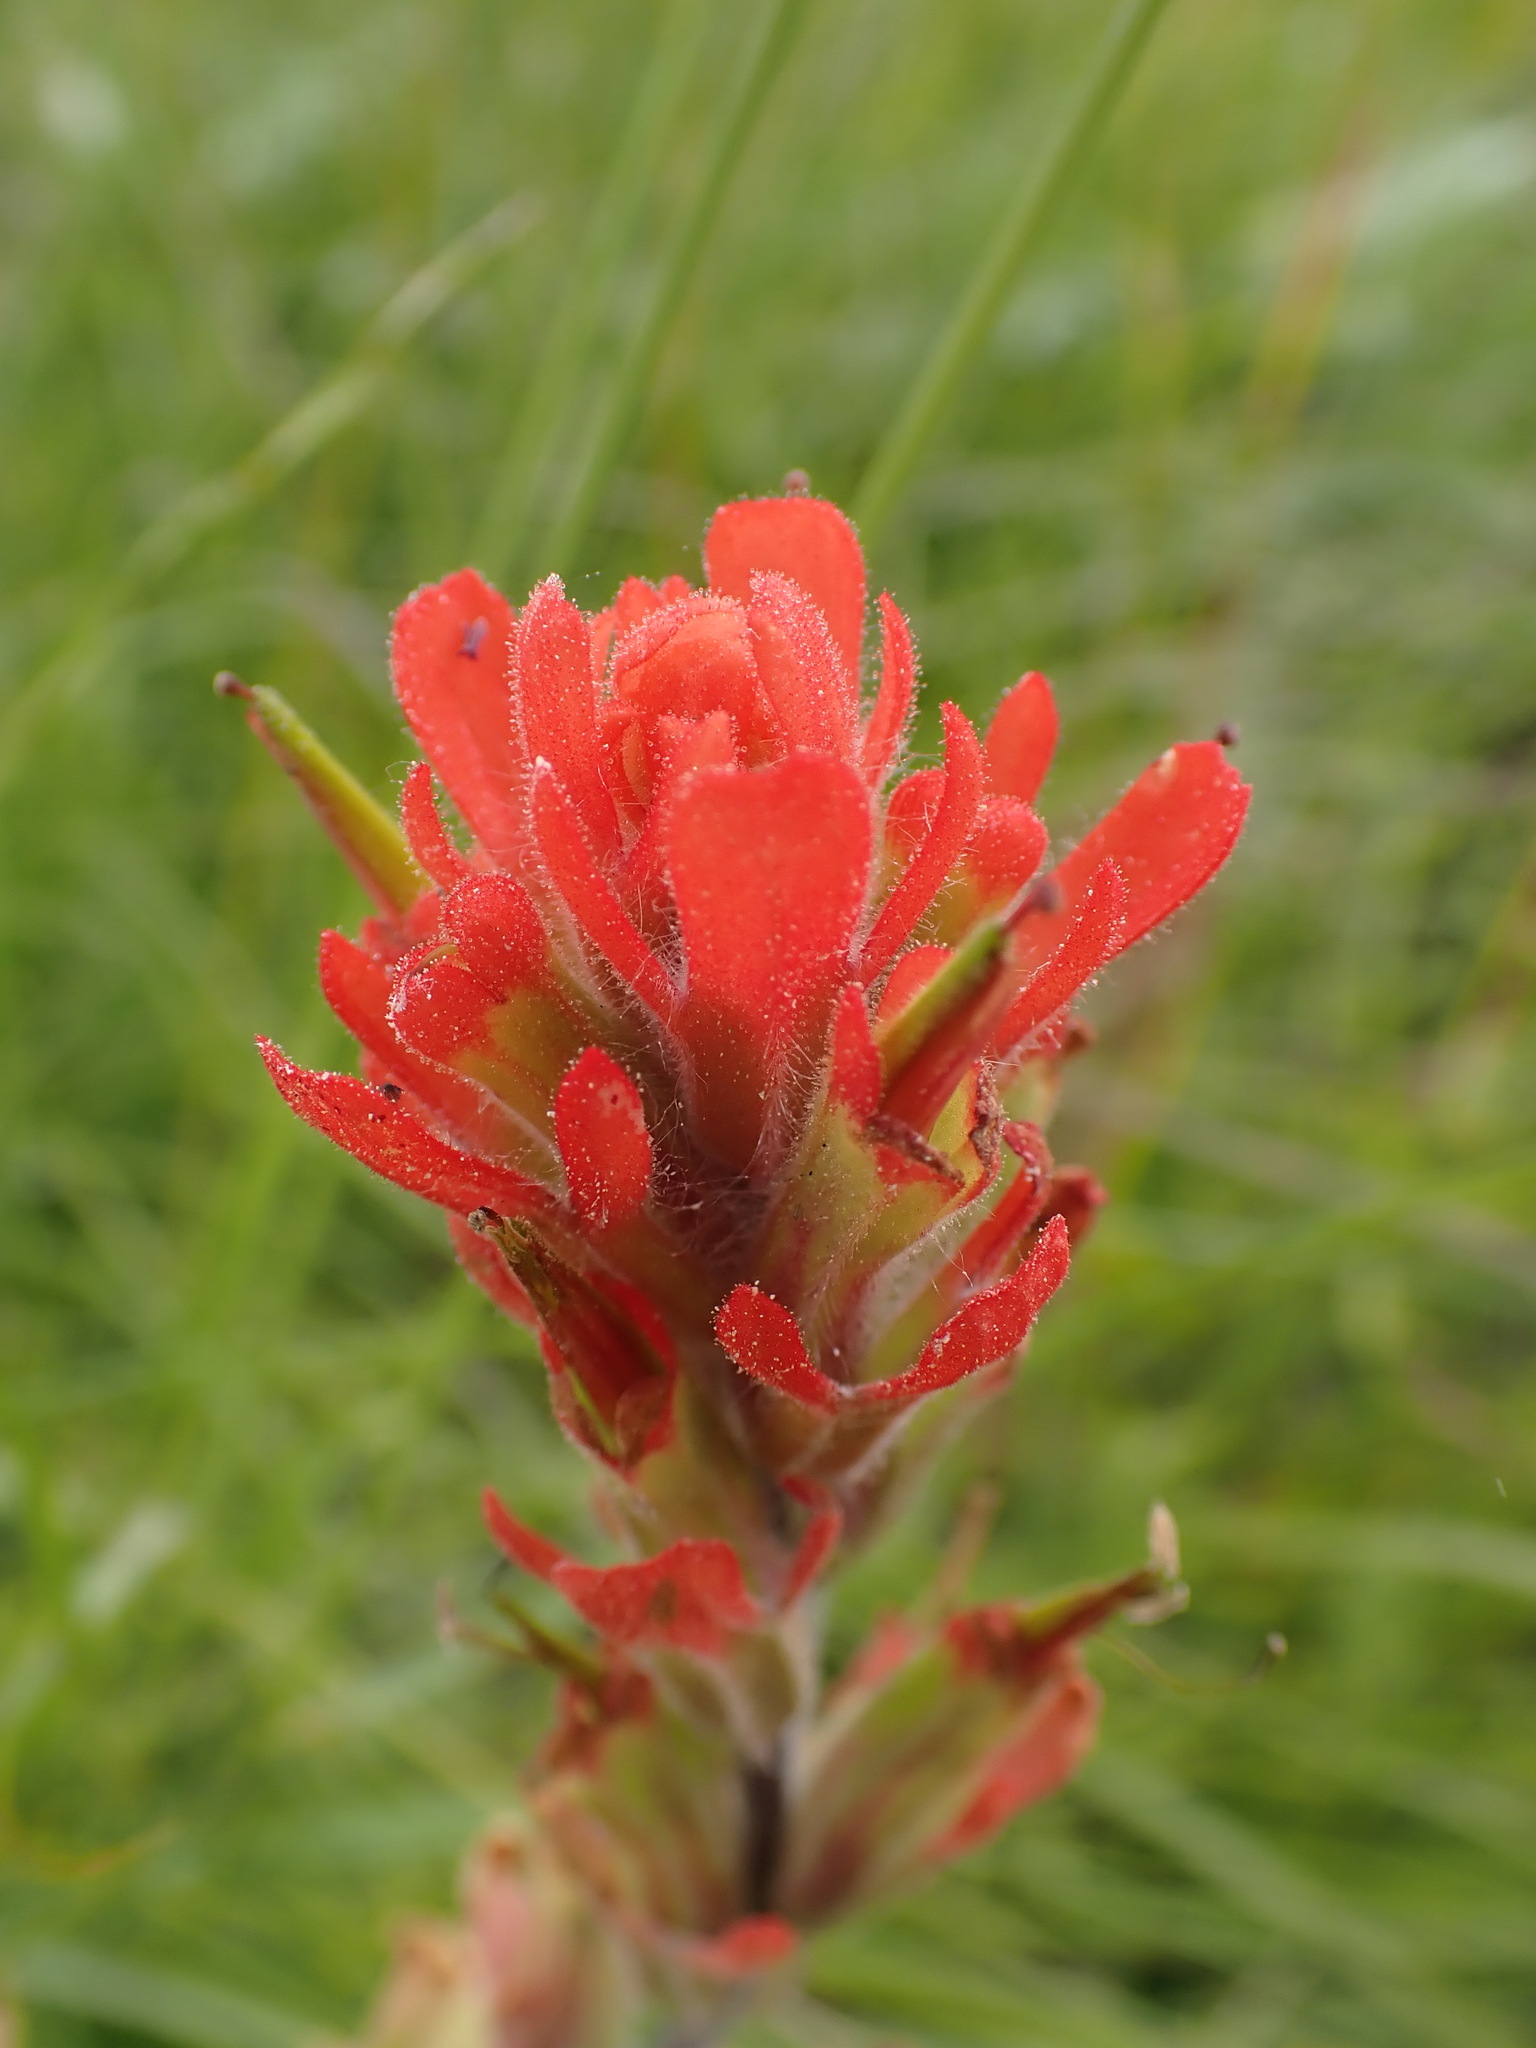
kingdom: Plantae
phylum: Tracheophyta
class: Magnoliopsida
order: Lamiales
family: Orobanchaceae
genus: Castilleja
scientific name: Castilleja hispida
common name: Bristly paintbrush
